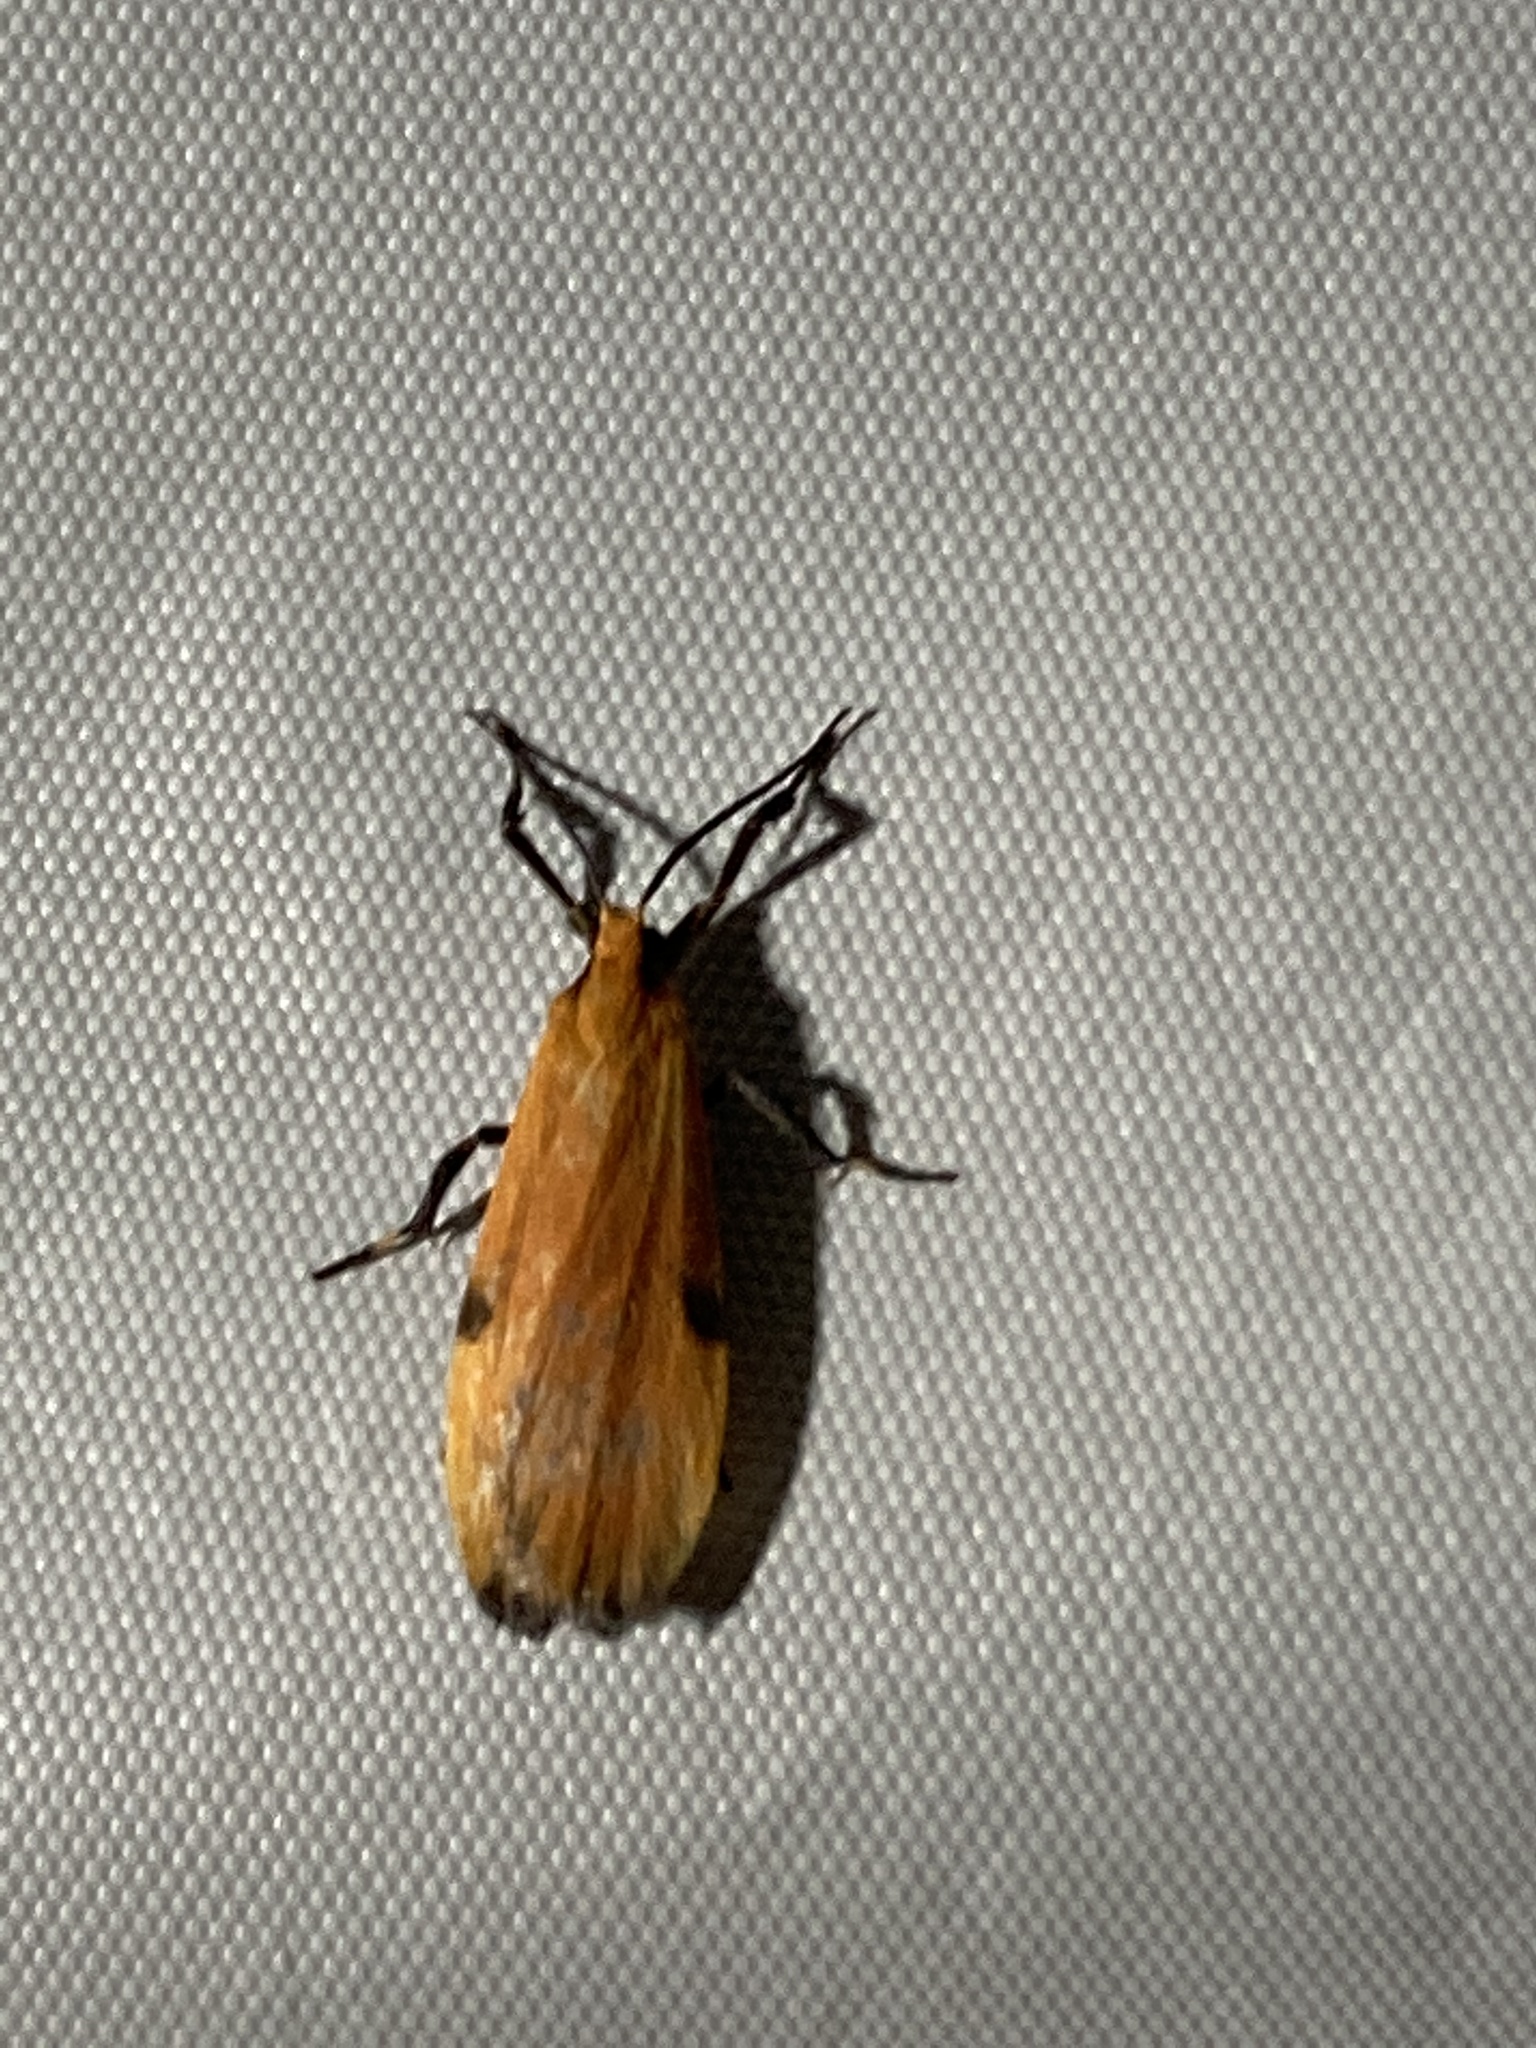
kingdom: Animalia
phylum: Arthropoda
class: Insecta
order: Lepidoptera
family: Erebidae
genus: Lycomorphodes
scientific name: Lycomorphodes sordida
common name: Lichen moth
